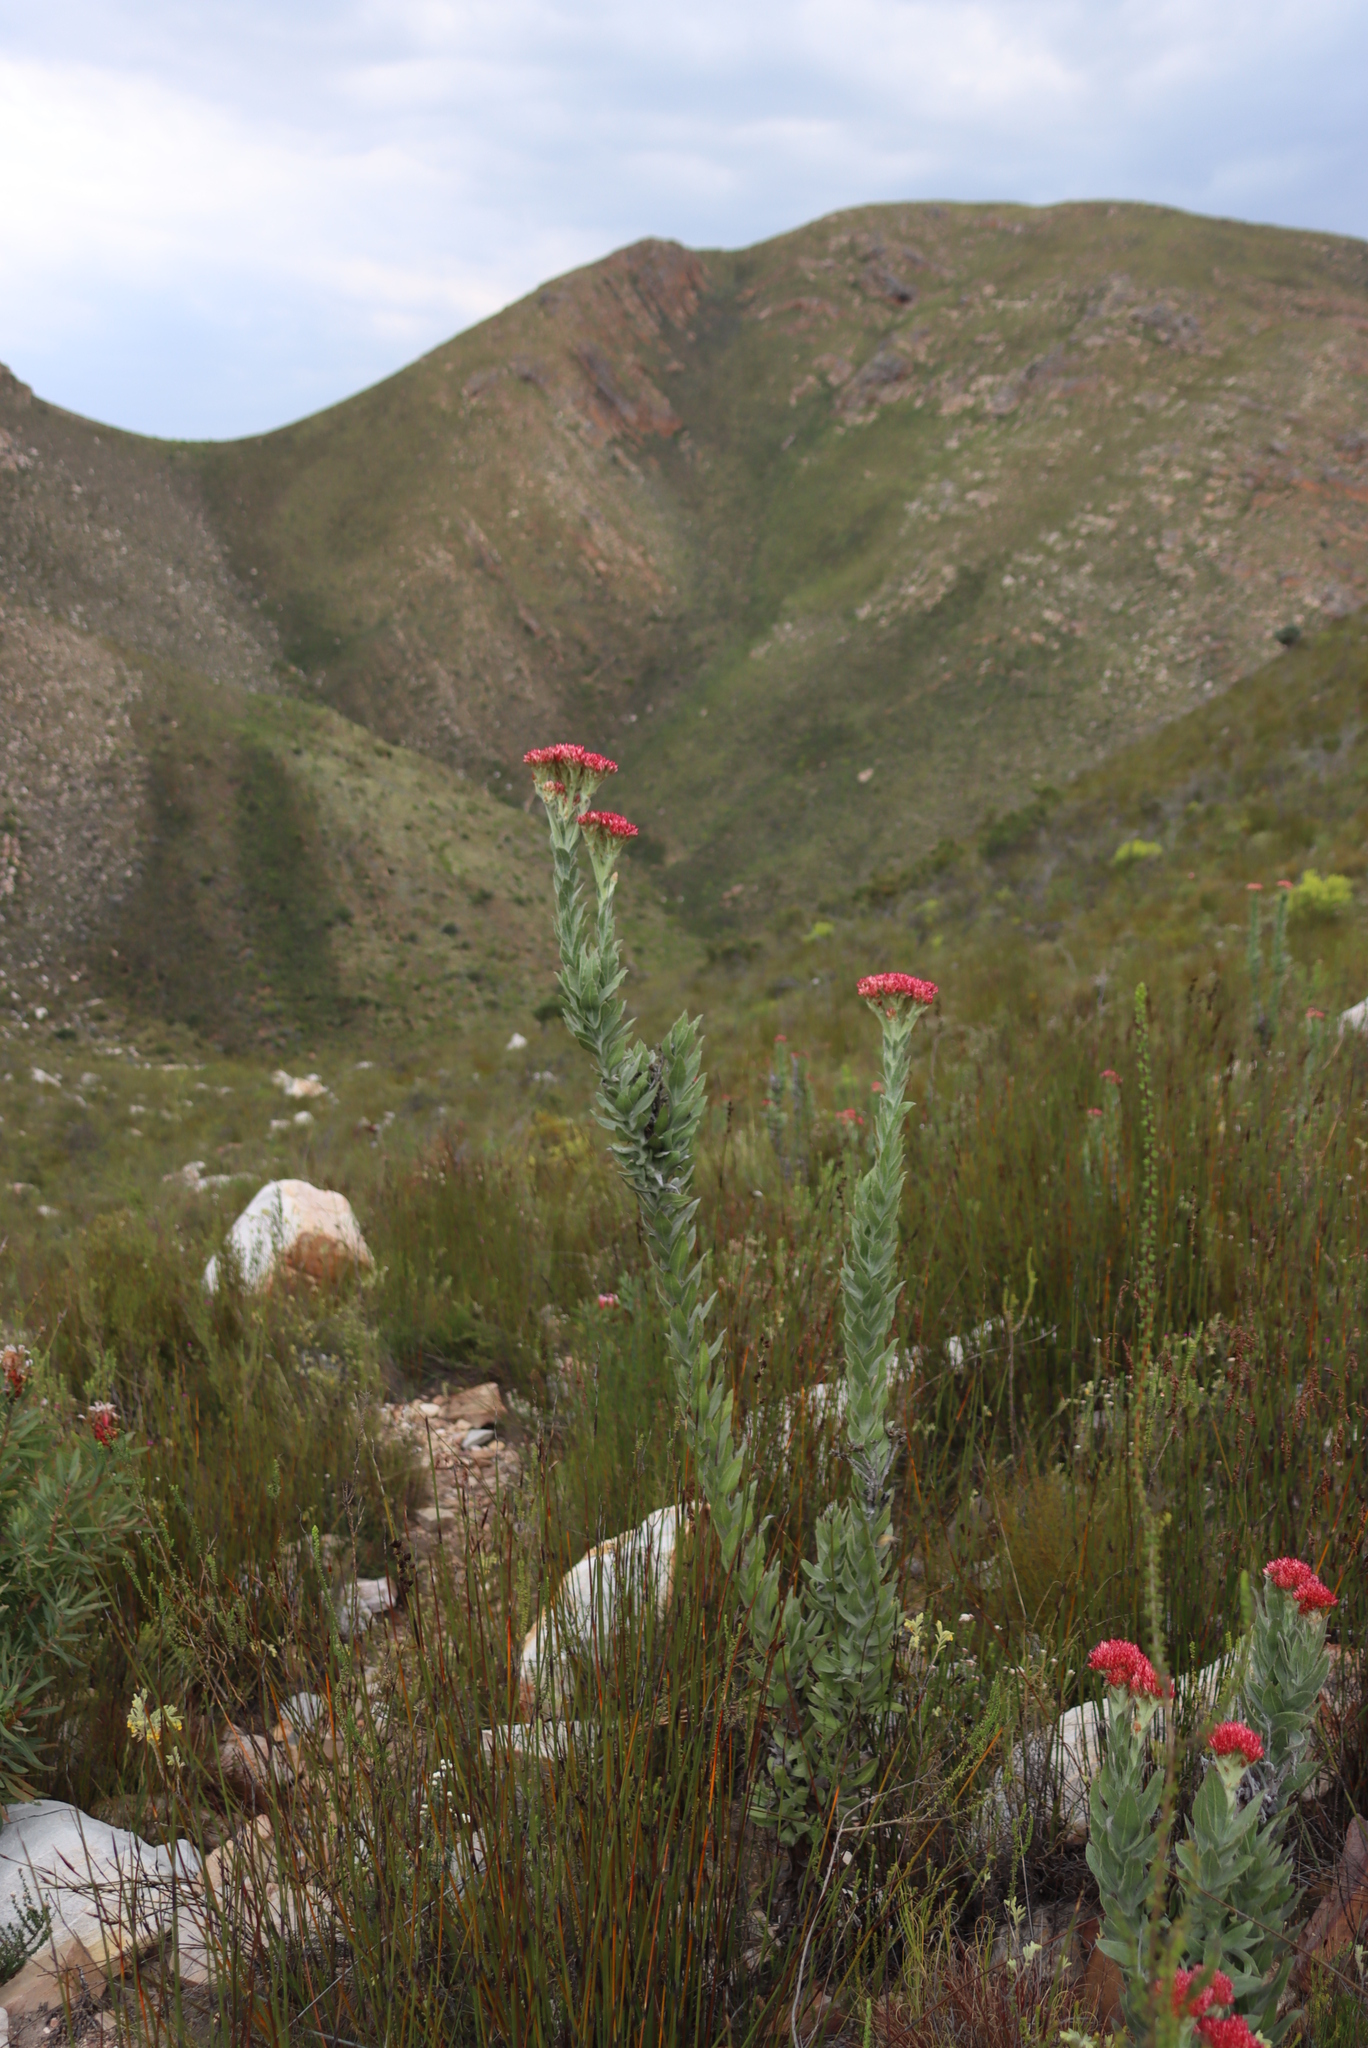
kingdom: Plantae
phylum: Tracheophyta
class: Magnoliopsida
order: Asterales
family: Asteraceae
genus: Syncarpha
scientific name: Syncarpha milleflora
